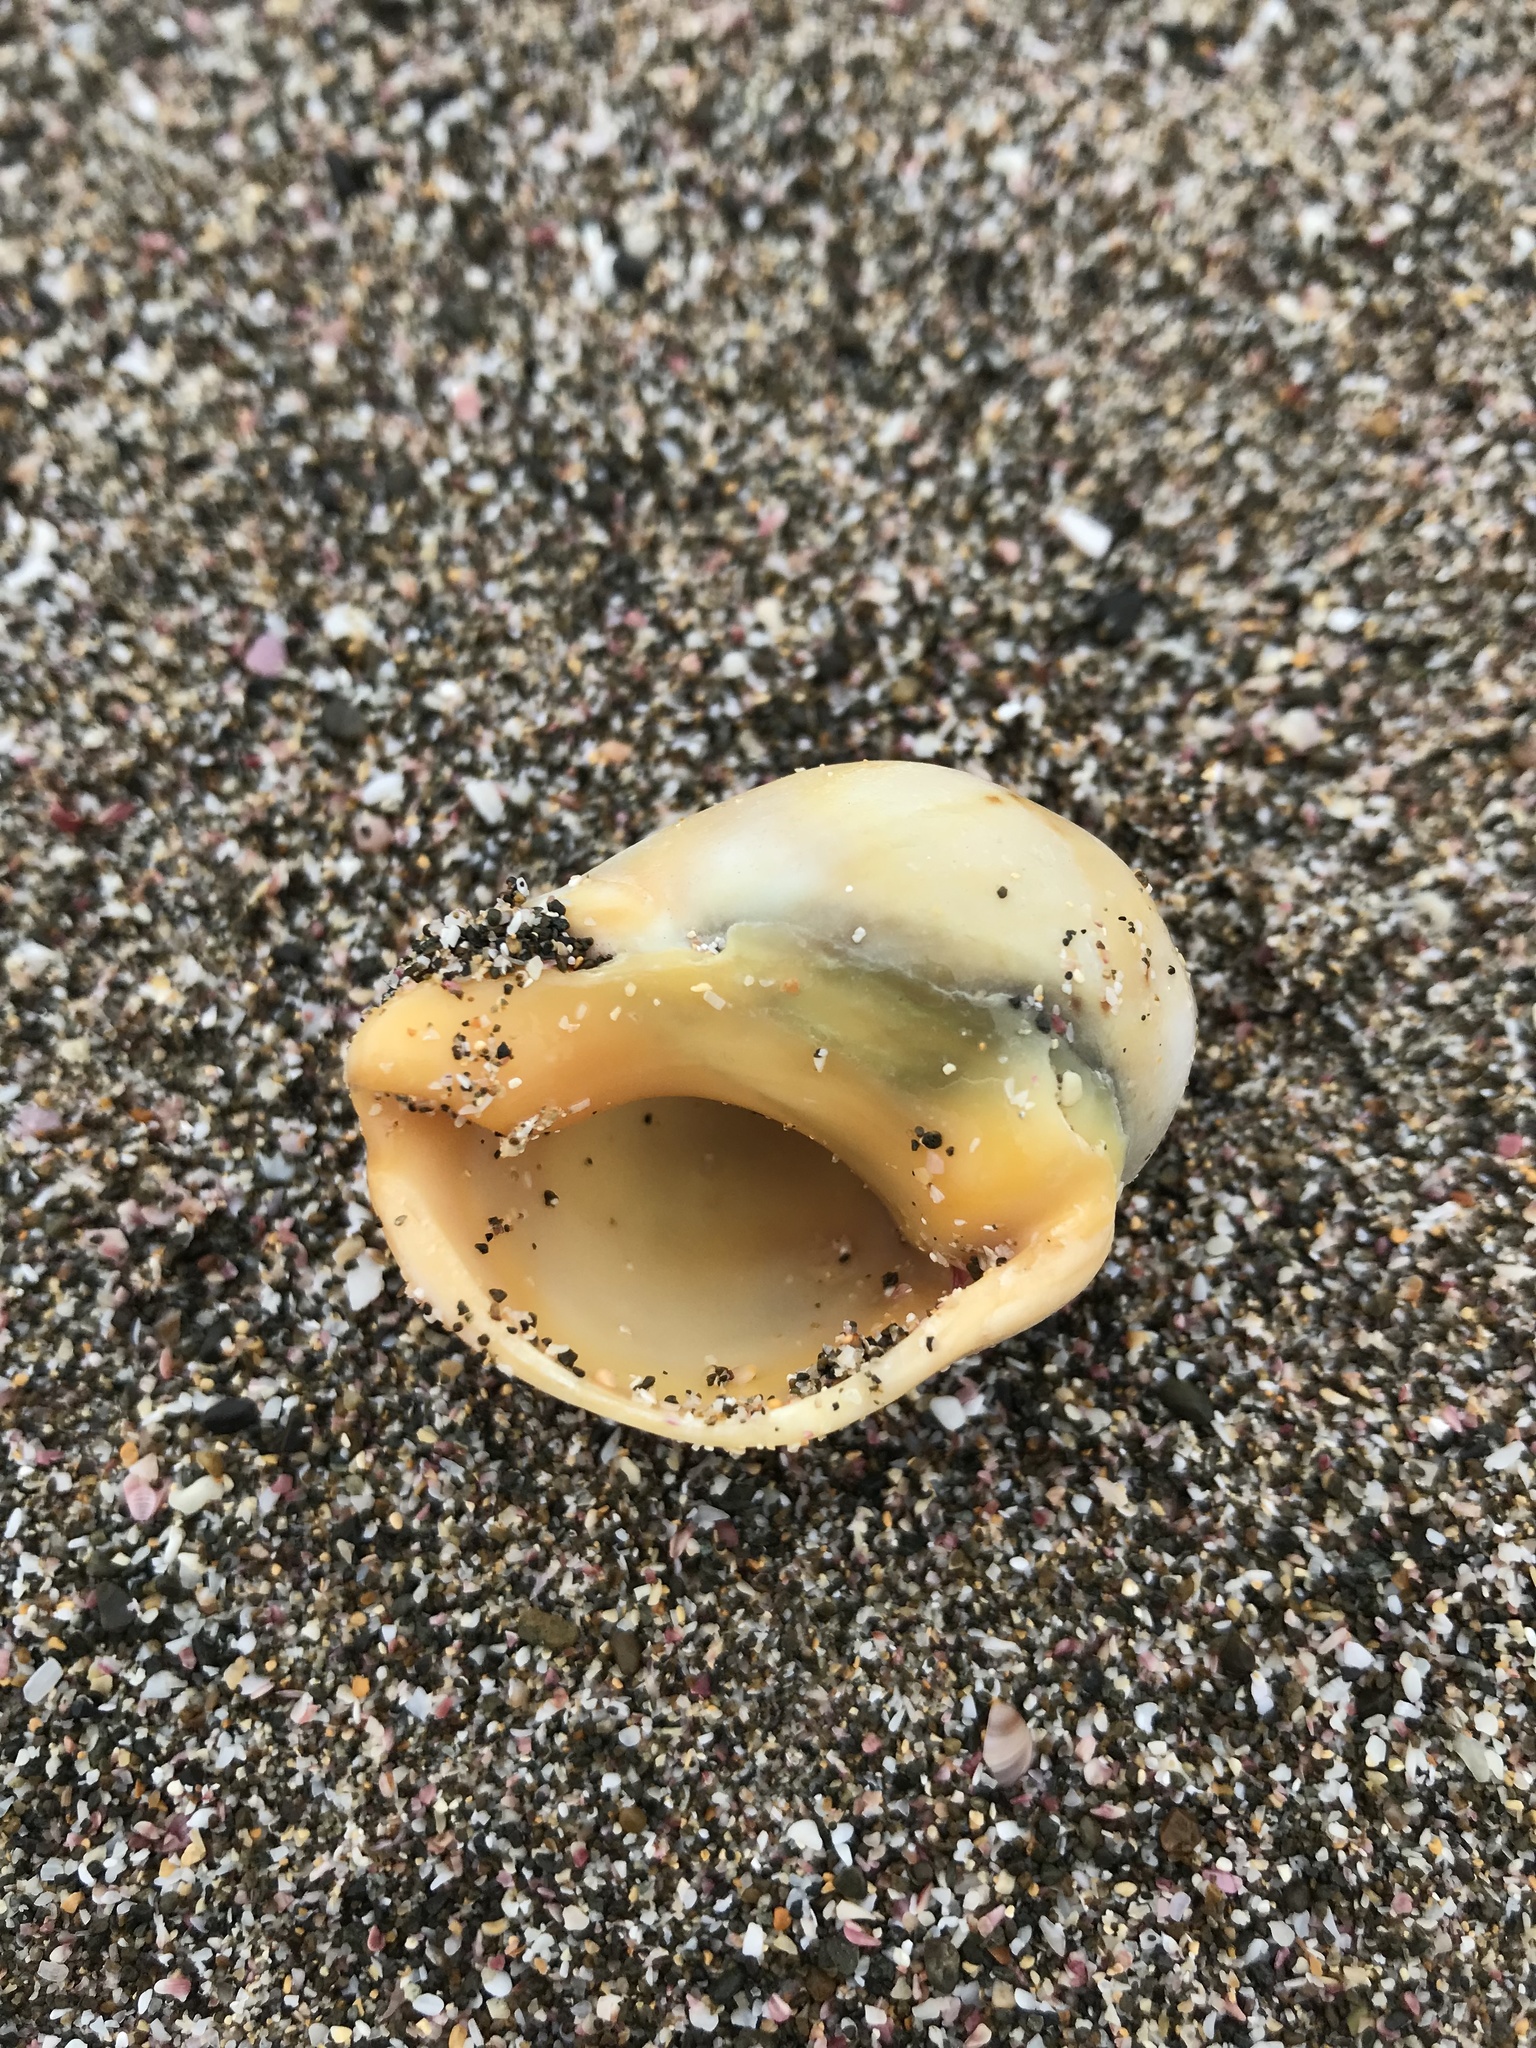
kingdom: Animalia
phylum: Mollusca
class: Gastropoda
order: Neogastropoda
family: Cominellidae
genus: Cominella
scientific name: Cominella adspersa
